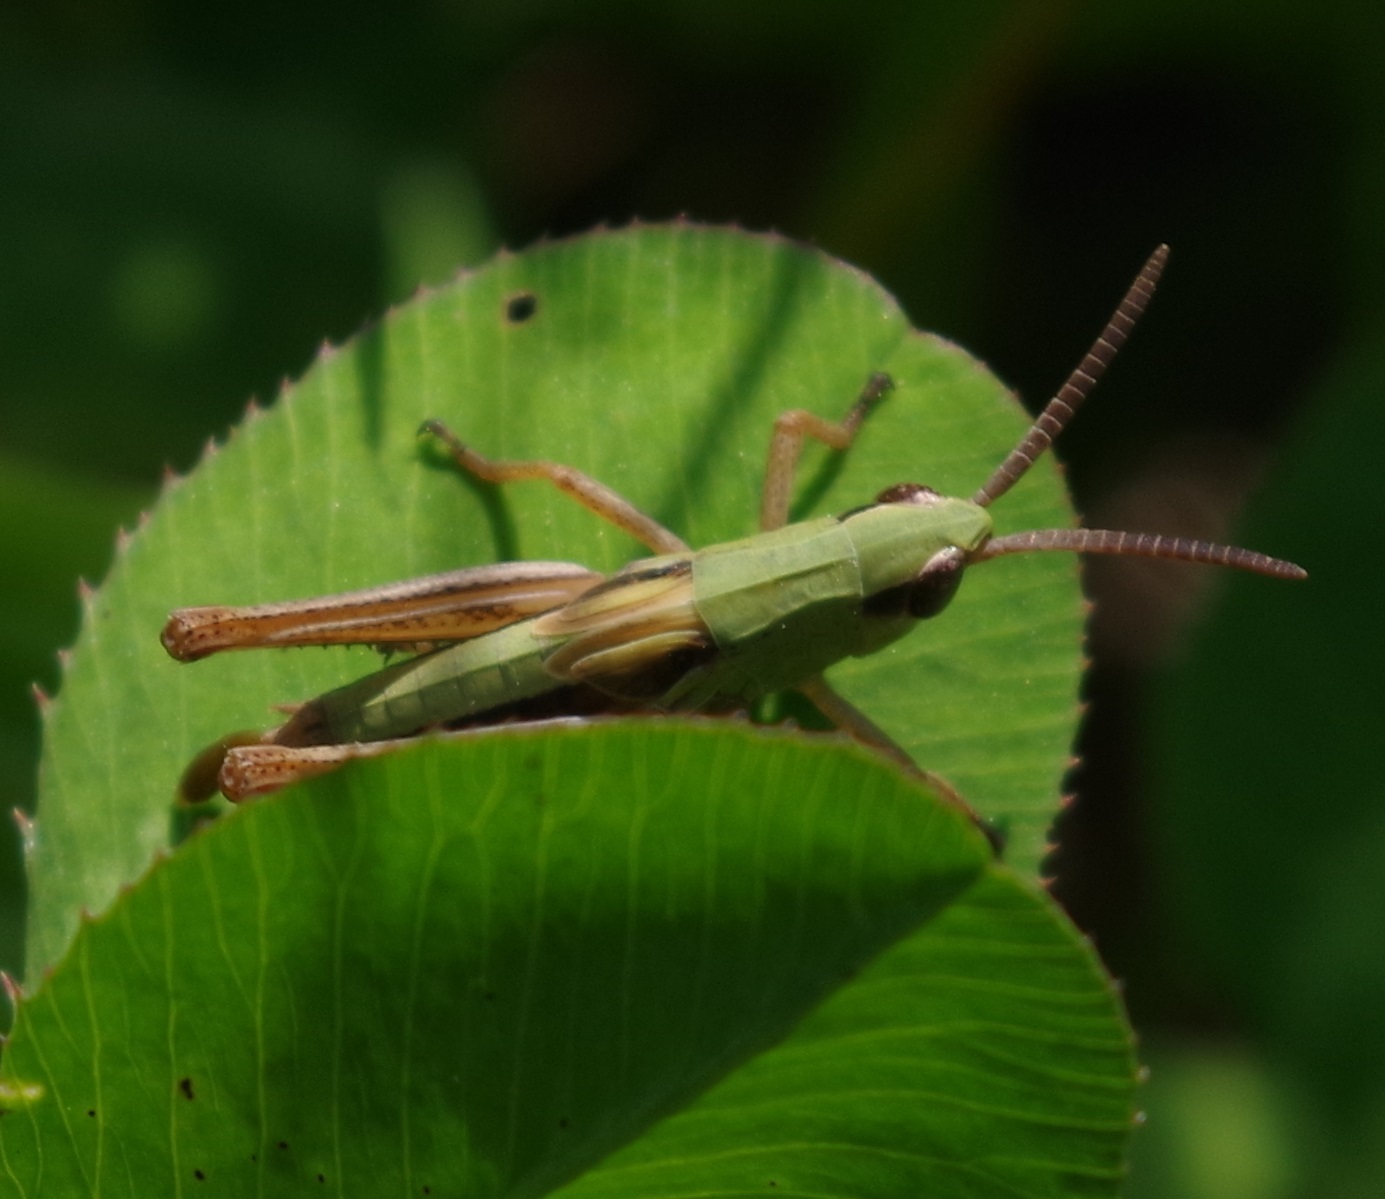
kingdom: Animalia
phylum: Arthropoda
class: Insecta
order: Orthoptera
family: Acrididae
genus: Pseudochorthippus
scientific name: Pseudochorthippus parallelus
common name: Meadow grasshopper
